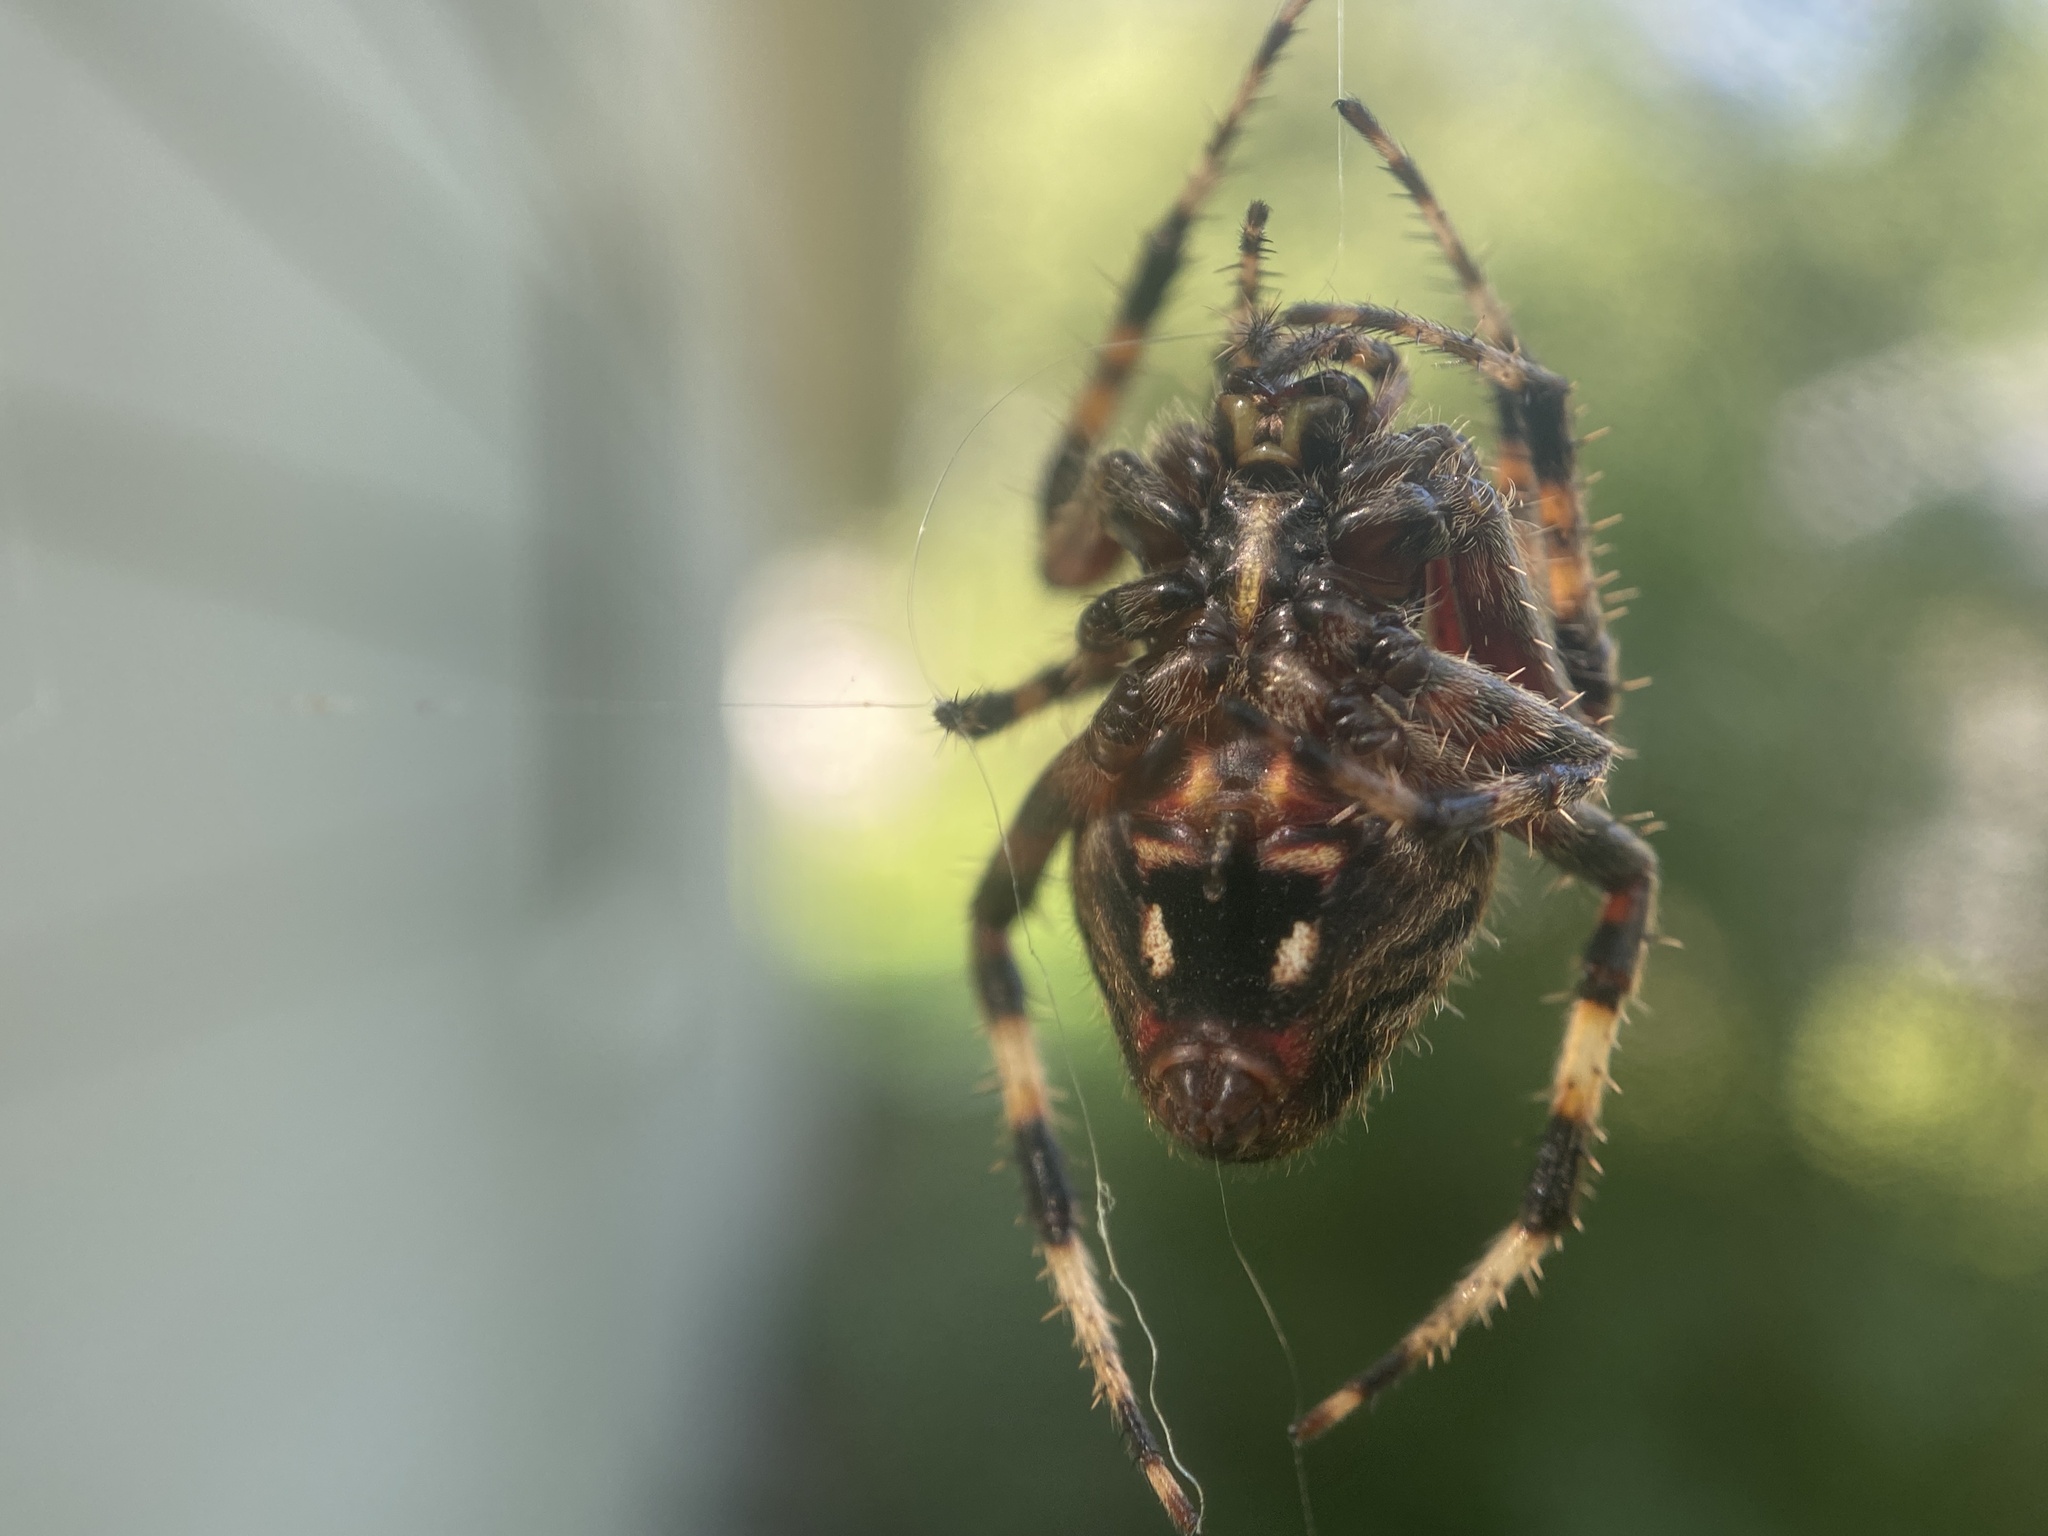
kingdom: Animalia
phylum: Arthropoda
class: Arachnida
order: Araneae
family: Araneidae
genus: Neoscona
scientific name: Neoscona crucifera
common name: Spotted orbweaver
